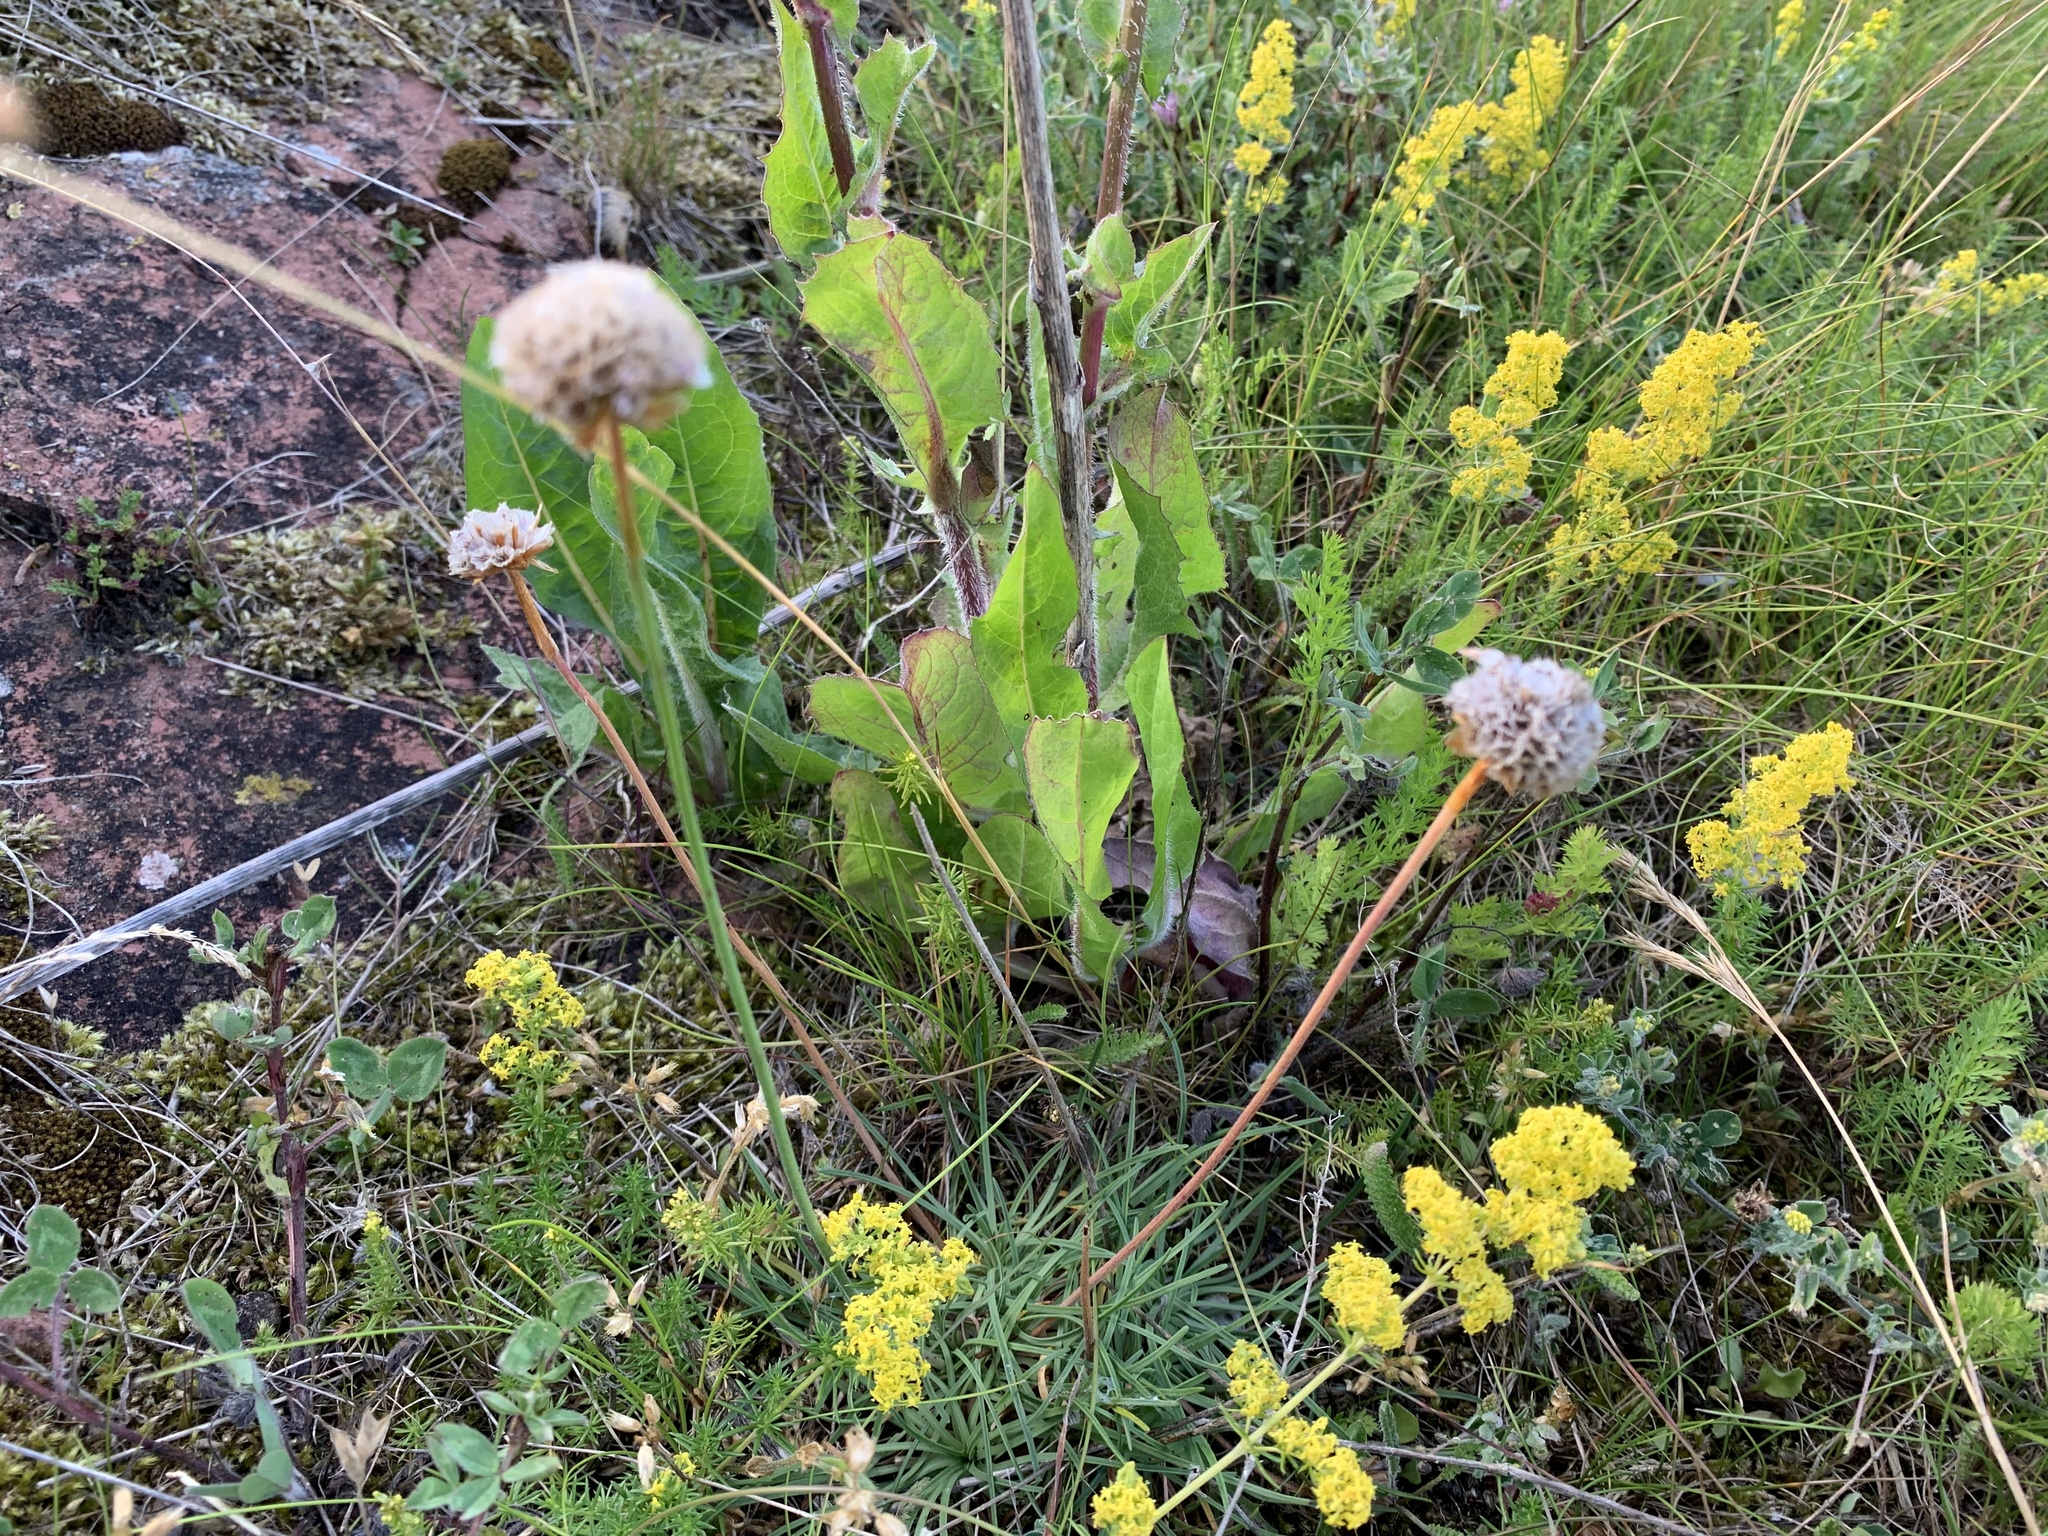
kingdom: Plantae
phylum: Tracheophyta
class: Magnoliopsida
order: Caryophyllales
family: Plumbaginaceae
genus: Armeria
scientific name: Armeria maritima
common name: Thrift
